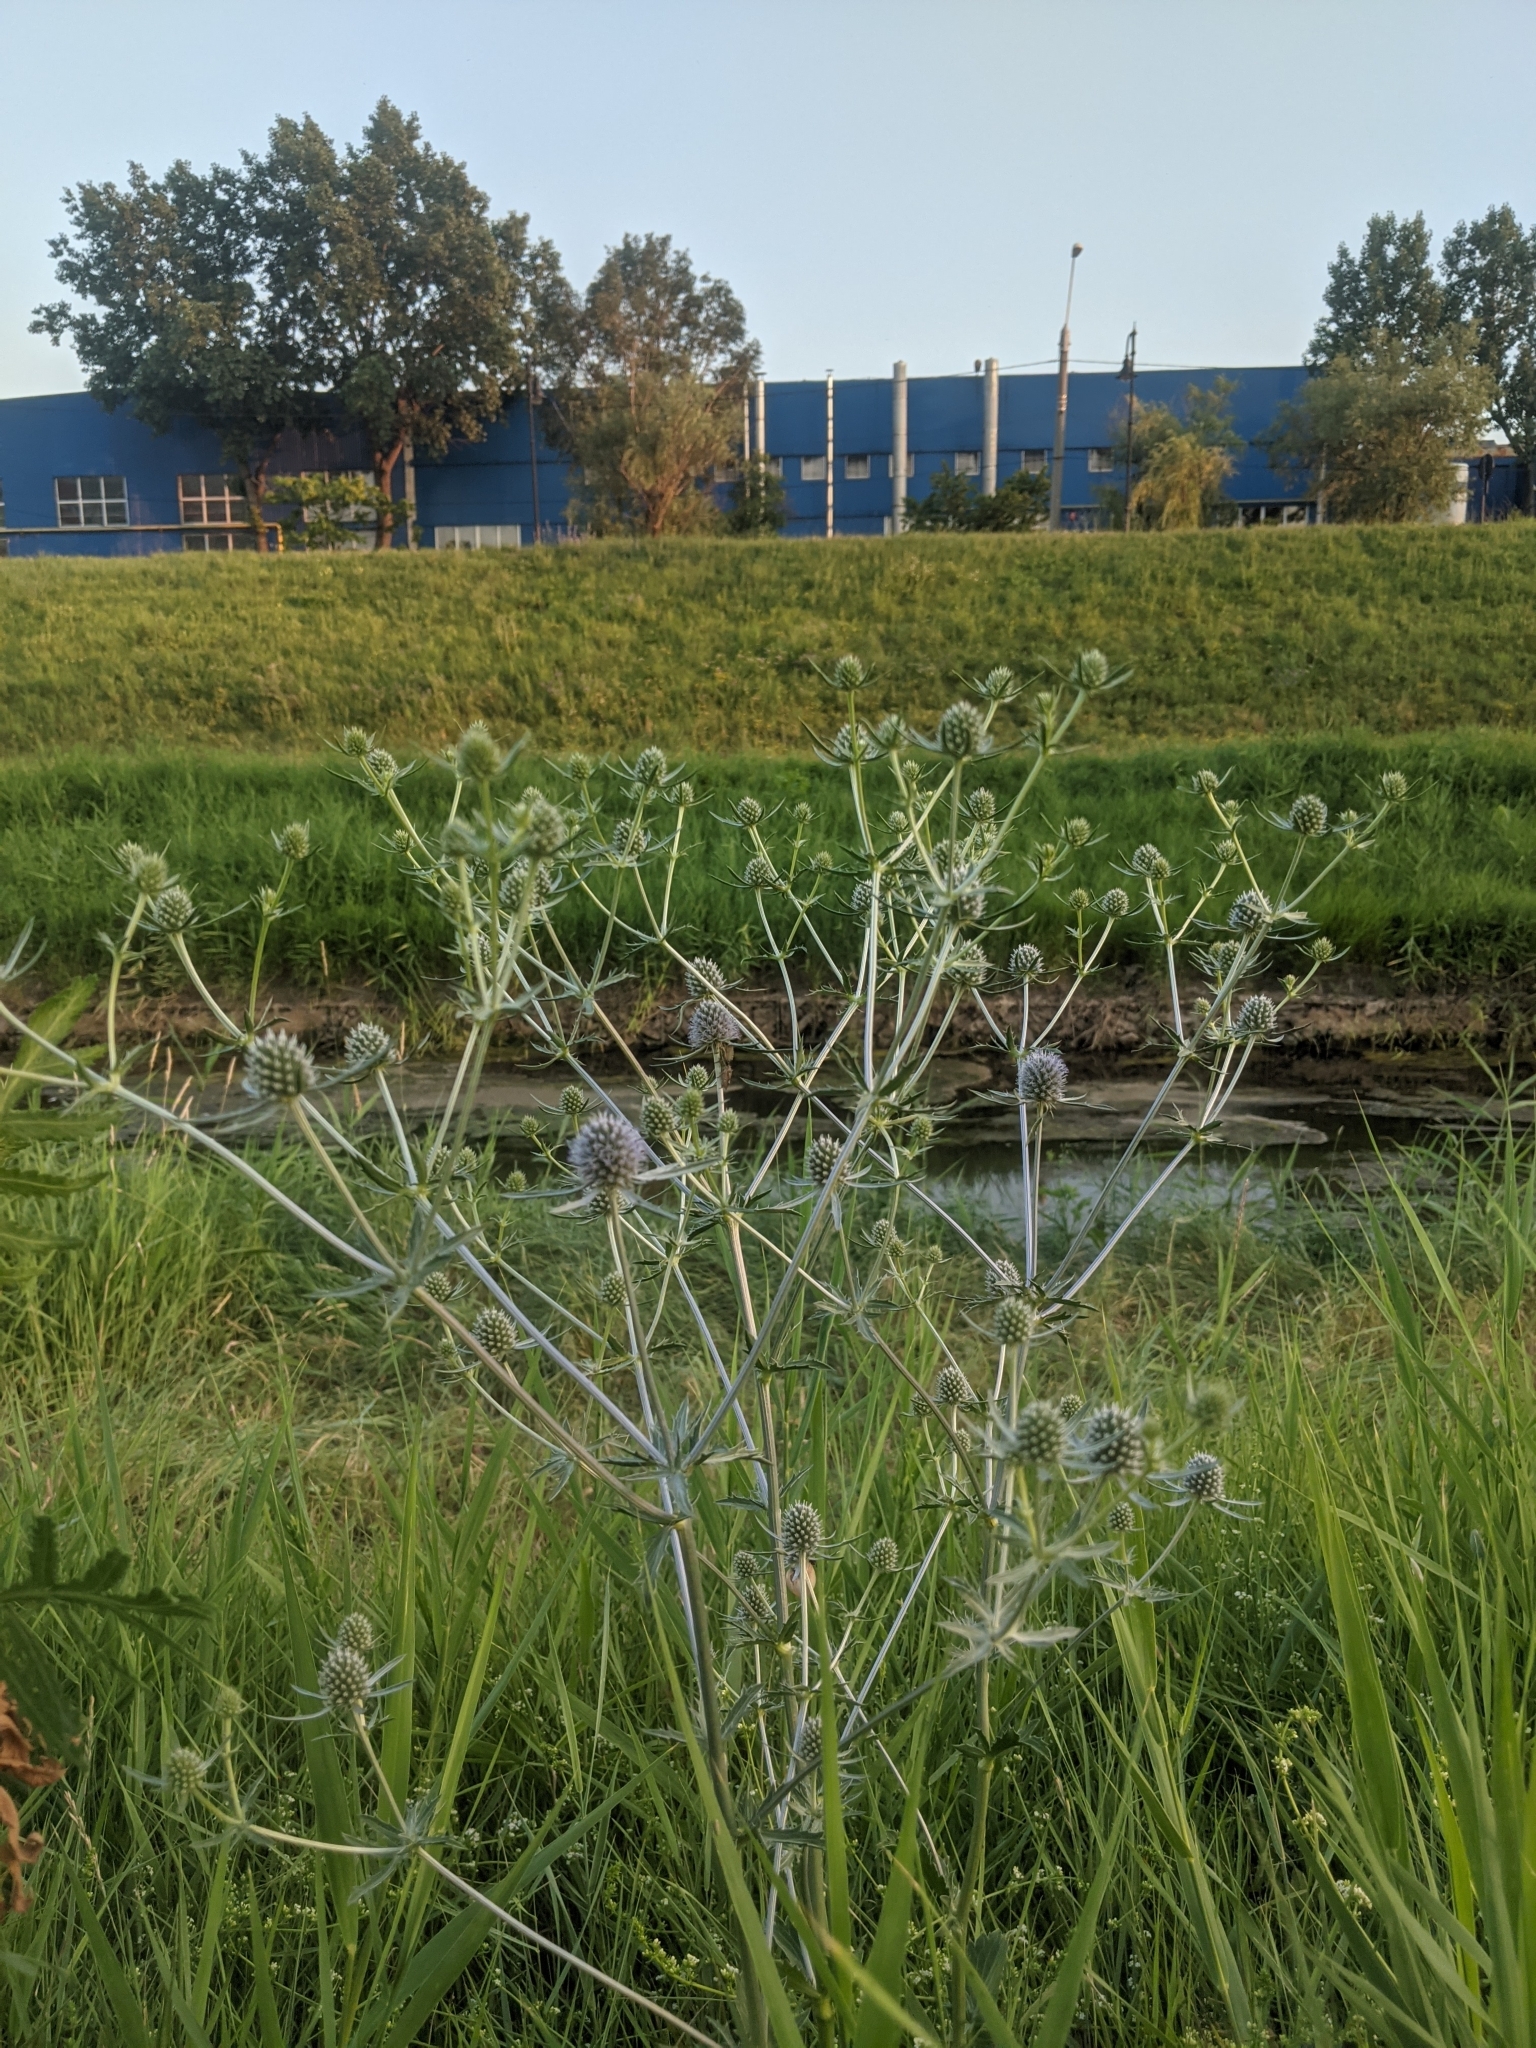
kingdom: Plantae
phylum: Tracheophyta
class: Magnoliopsida
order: Apiales
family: Apiaceae
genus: Eryngium
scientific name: Eryngium planum
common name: Blue eryngo
